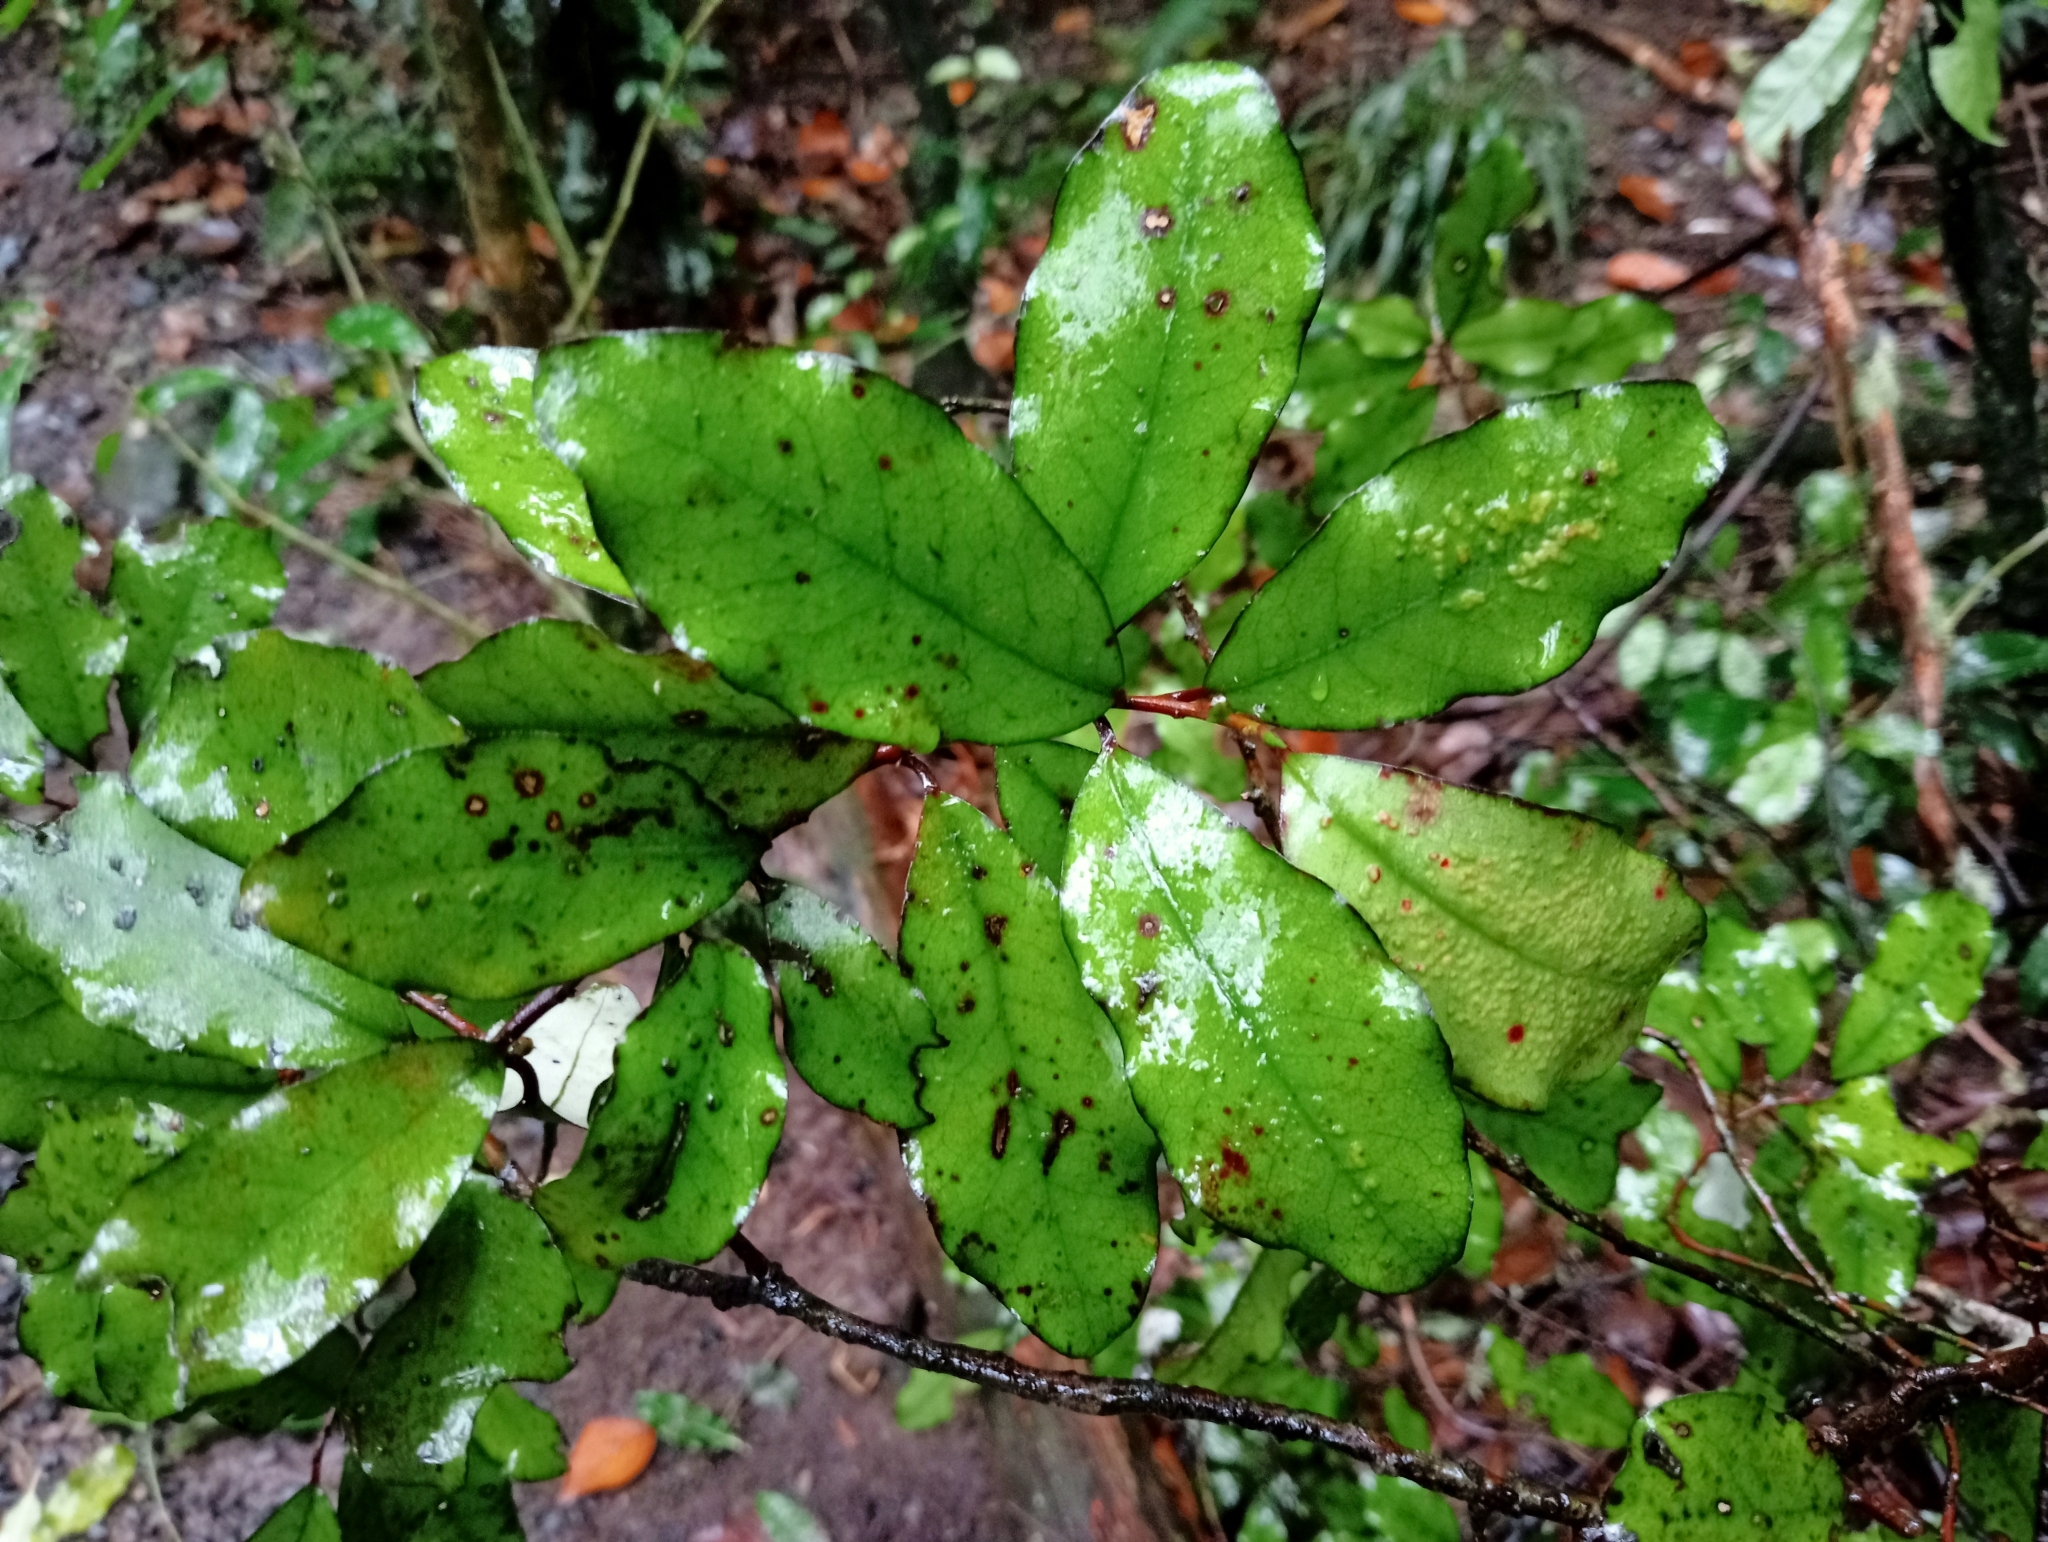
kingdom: Plantae
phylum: Tracheophyta
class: Magnoliopsida
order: Canellales
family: Winteraceae
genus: Pseudowintera
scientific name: Pseudowintera colorata
